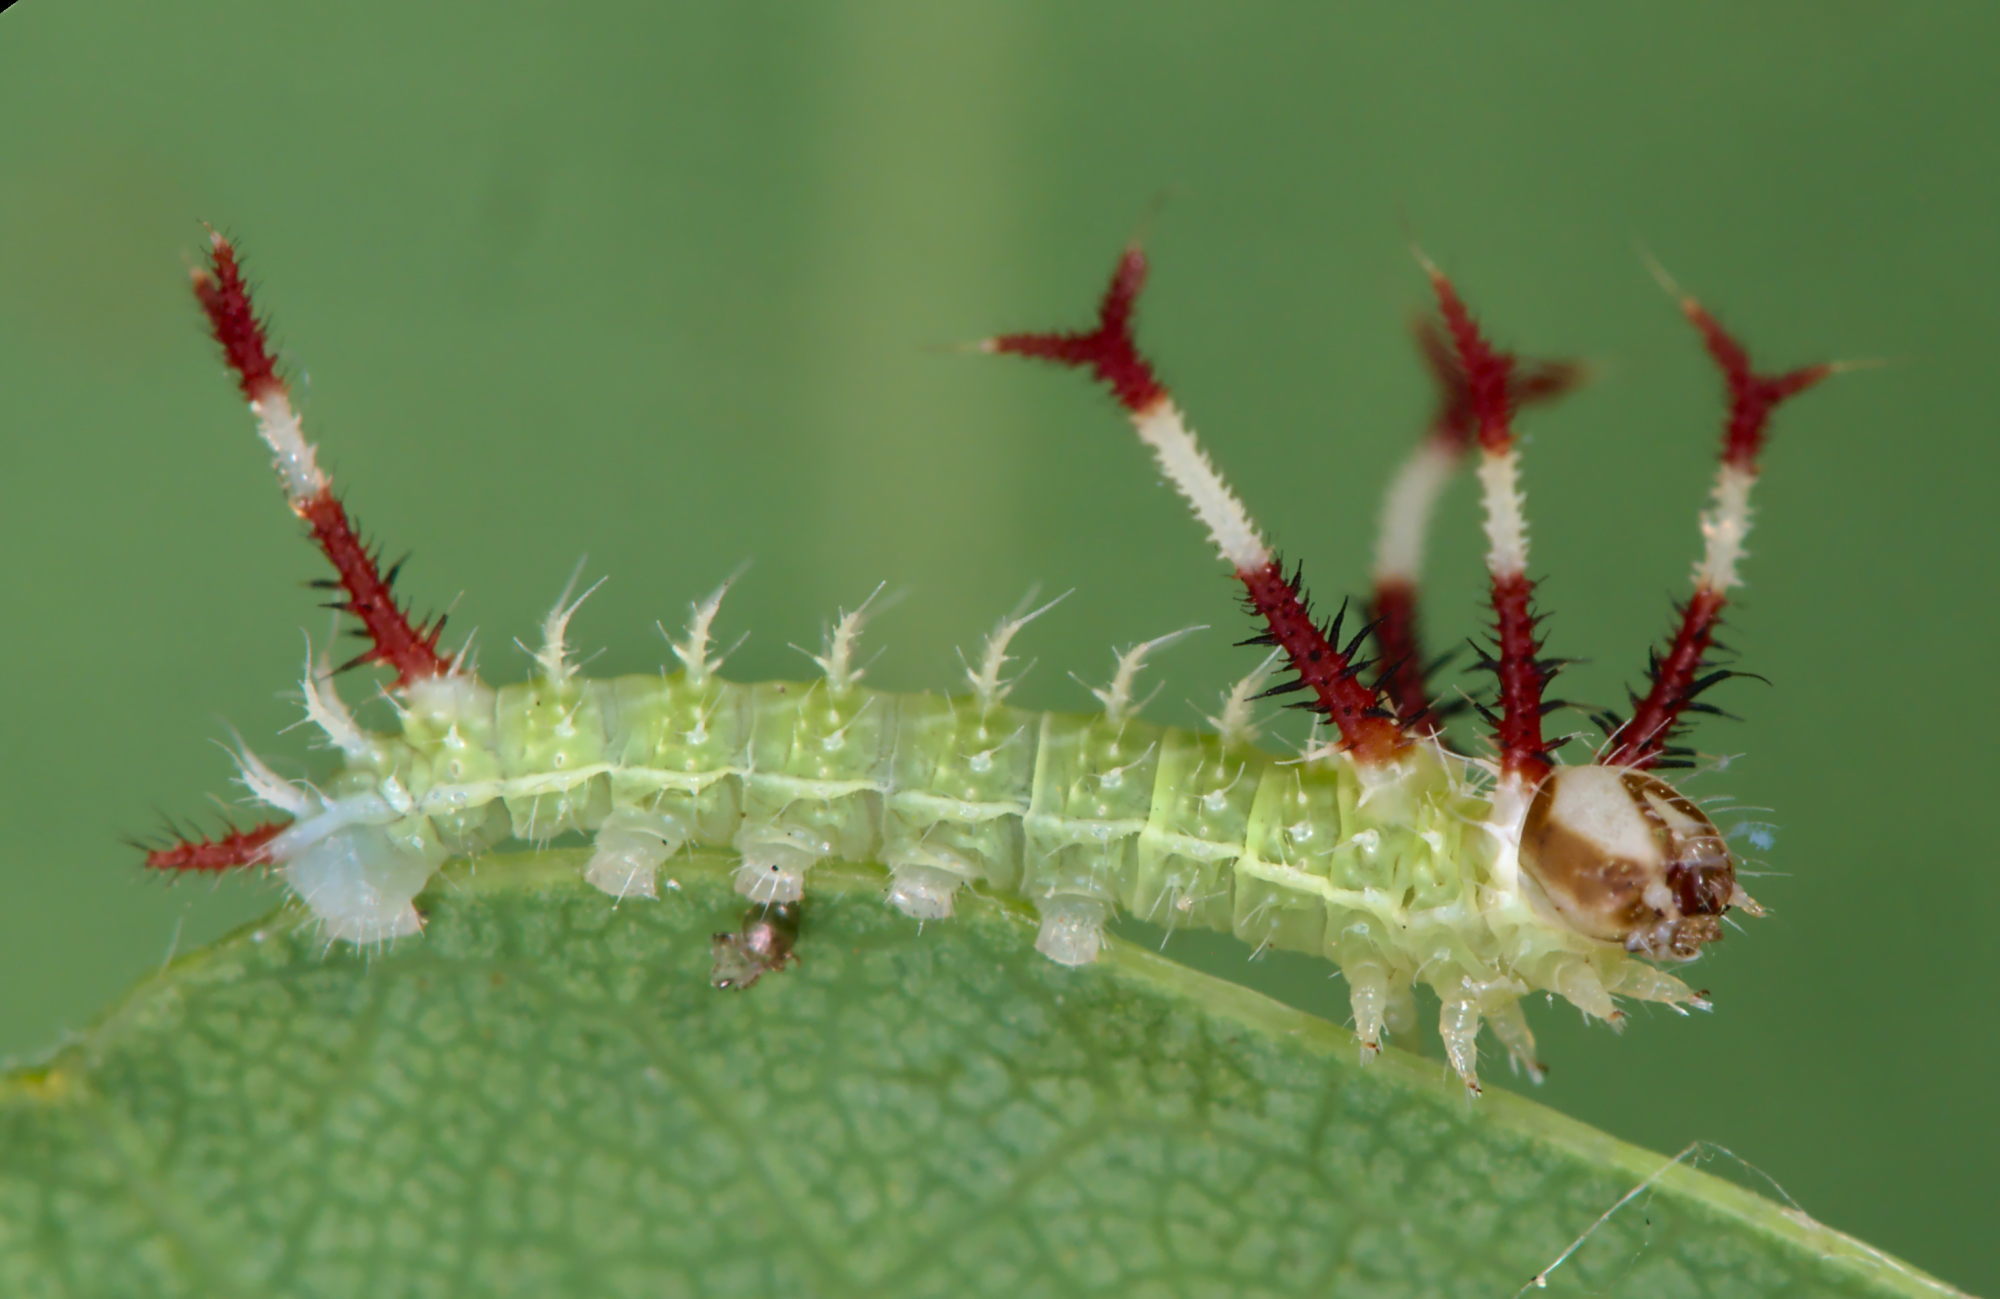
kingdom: Animalia
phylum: Arthropoda
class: Insecta
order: Lepidoptera
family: Saturniidae
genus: Aglia
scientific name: Aglia tau
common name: Tau emperor
